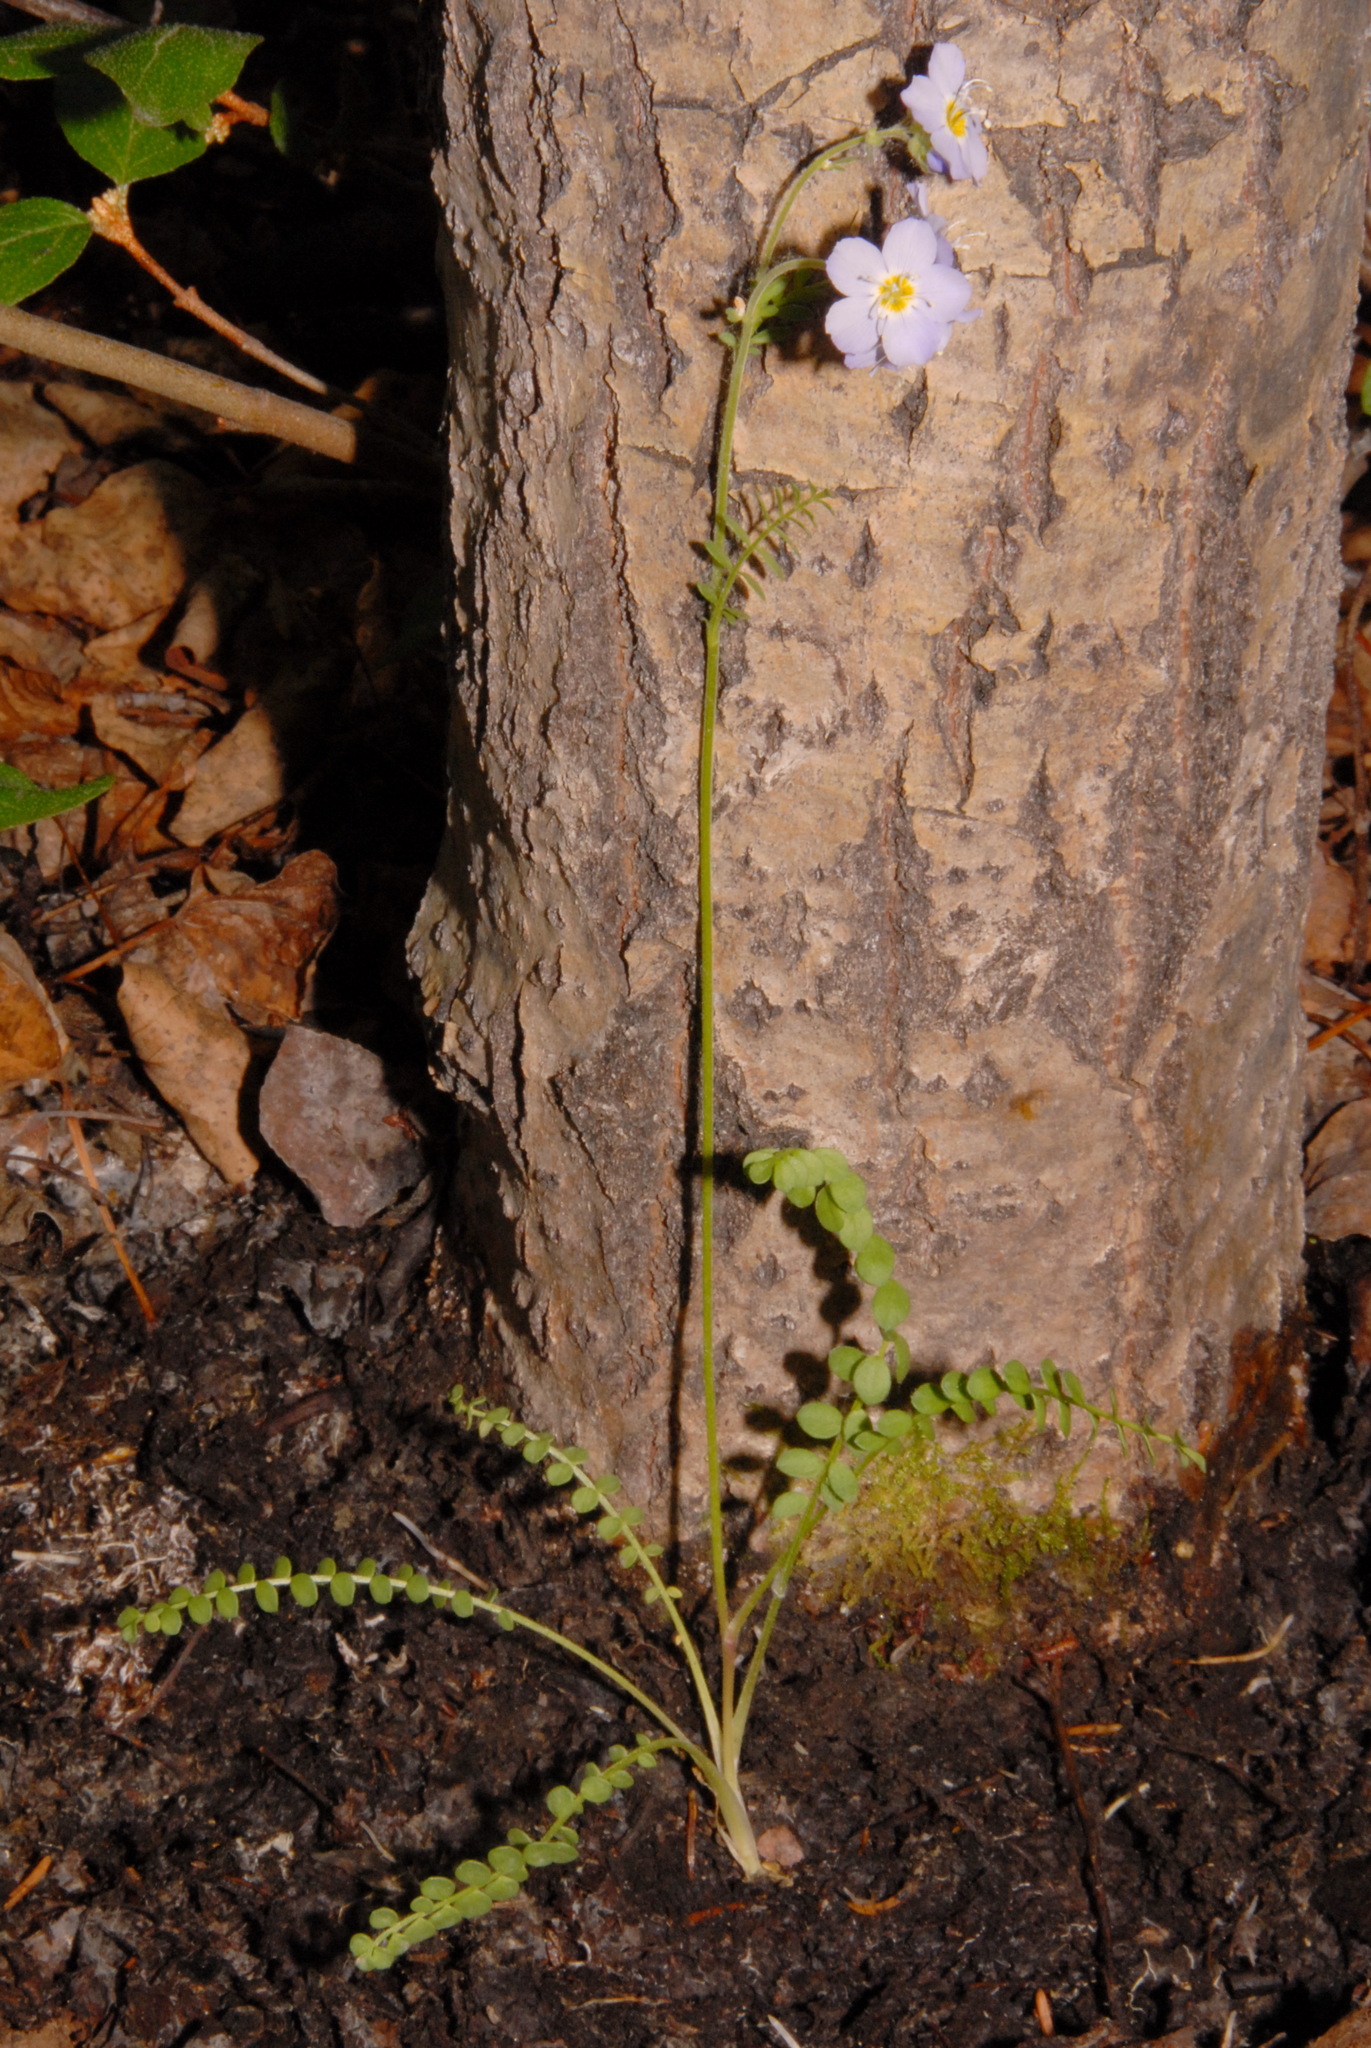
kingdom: Plantae
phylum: Tracheophyta
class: Magnoliopsida
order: Ericales
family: Polemoniaceae
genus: Polemonium
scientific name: Polemonium pulcherrimum
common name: Short jacob's-ladder
